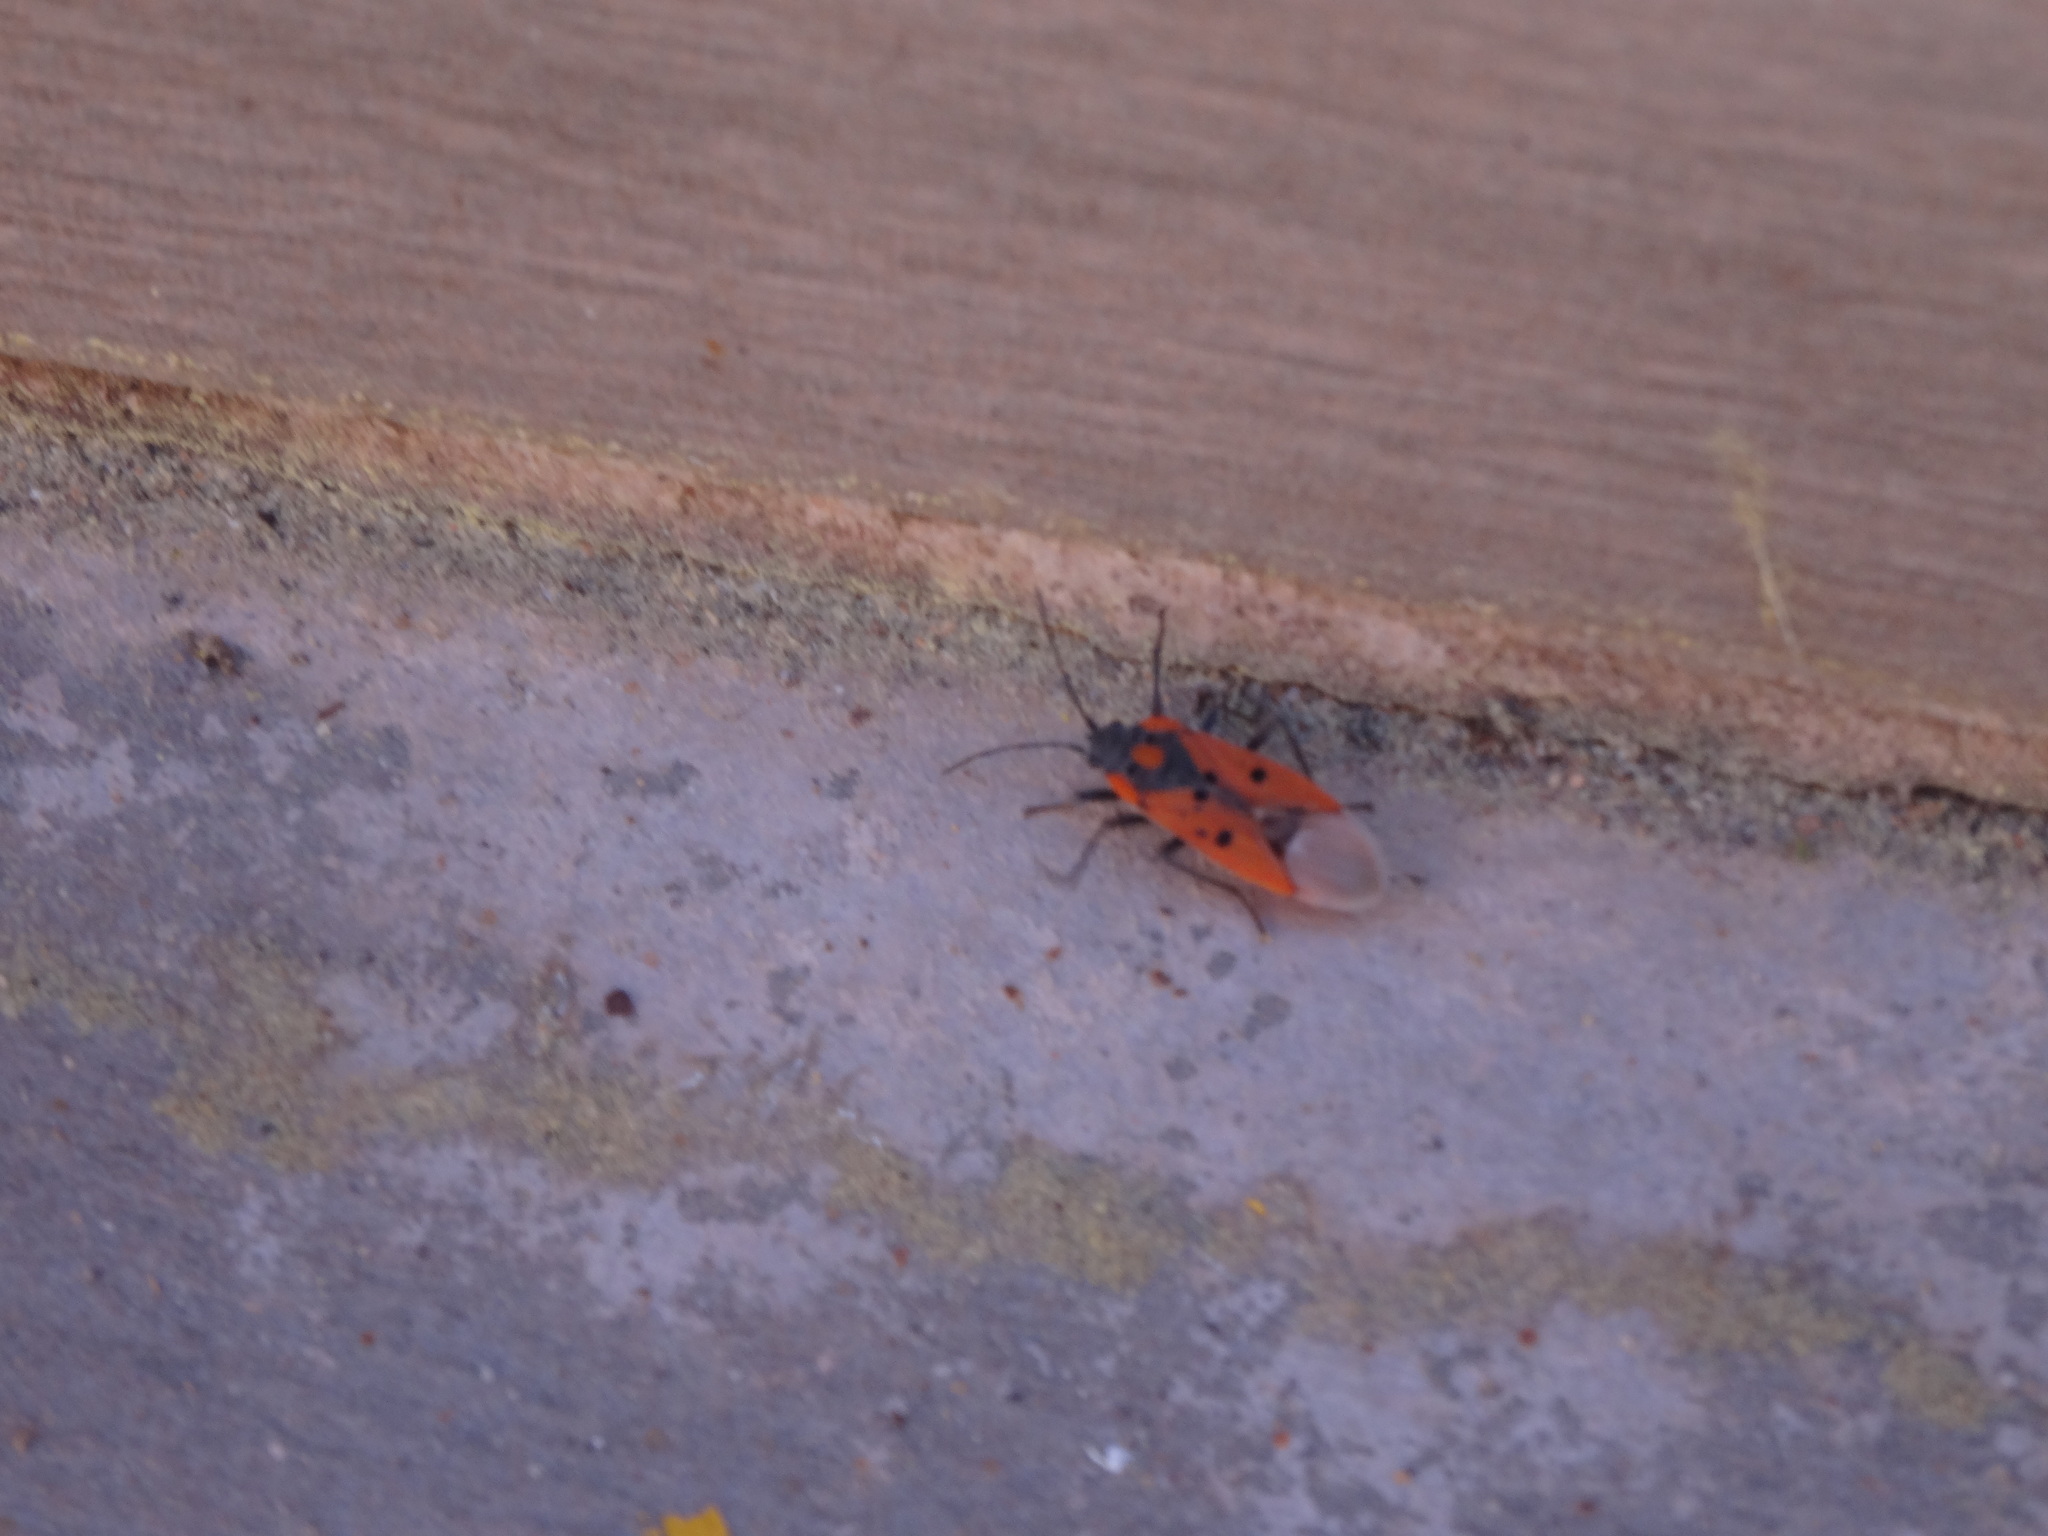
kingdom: Animalia
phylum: Arthropoda
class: Insecta
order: Hemiptera
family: Lygaeidae
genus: Lygaeus
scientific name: Lygaeus creticus
